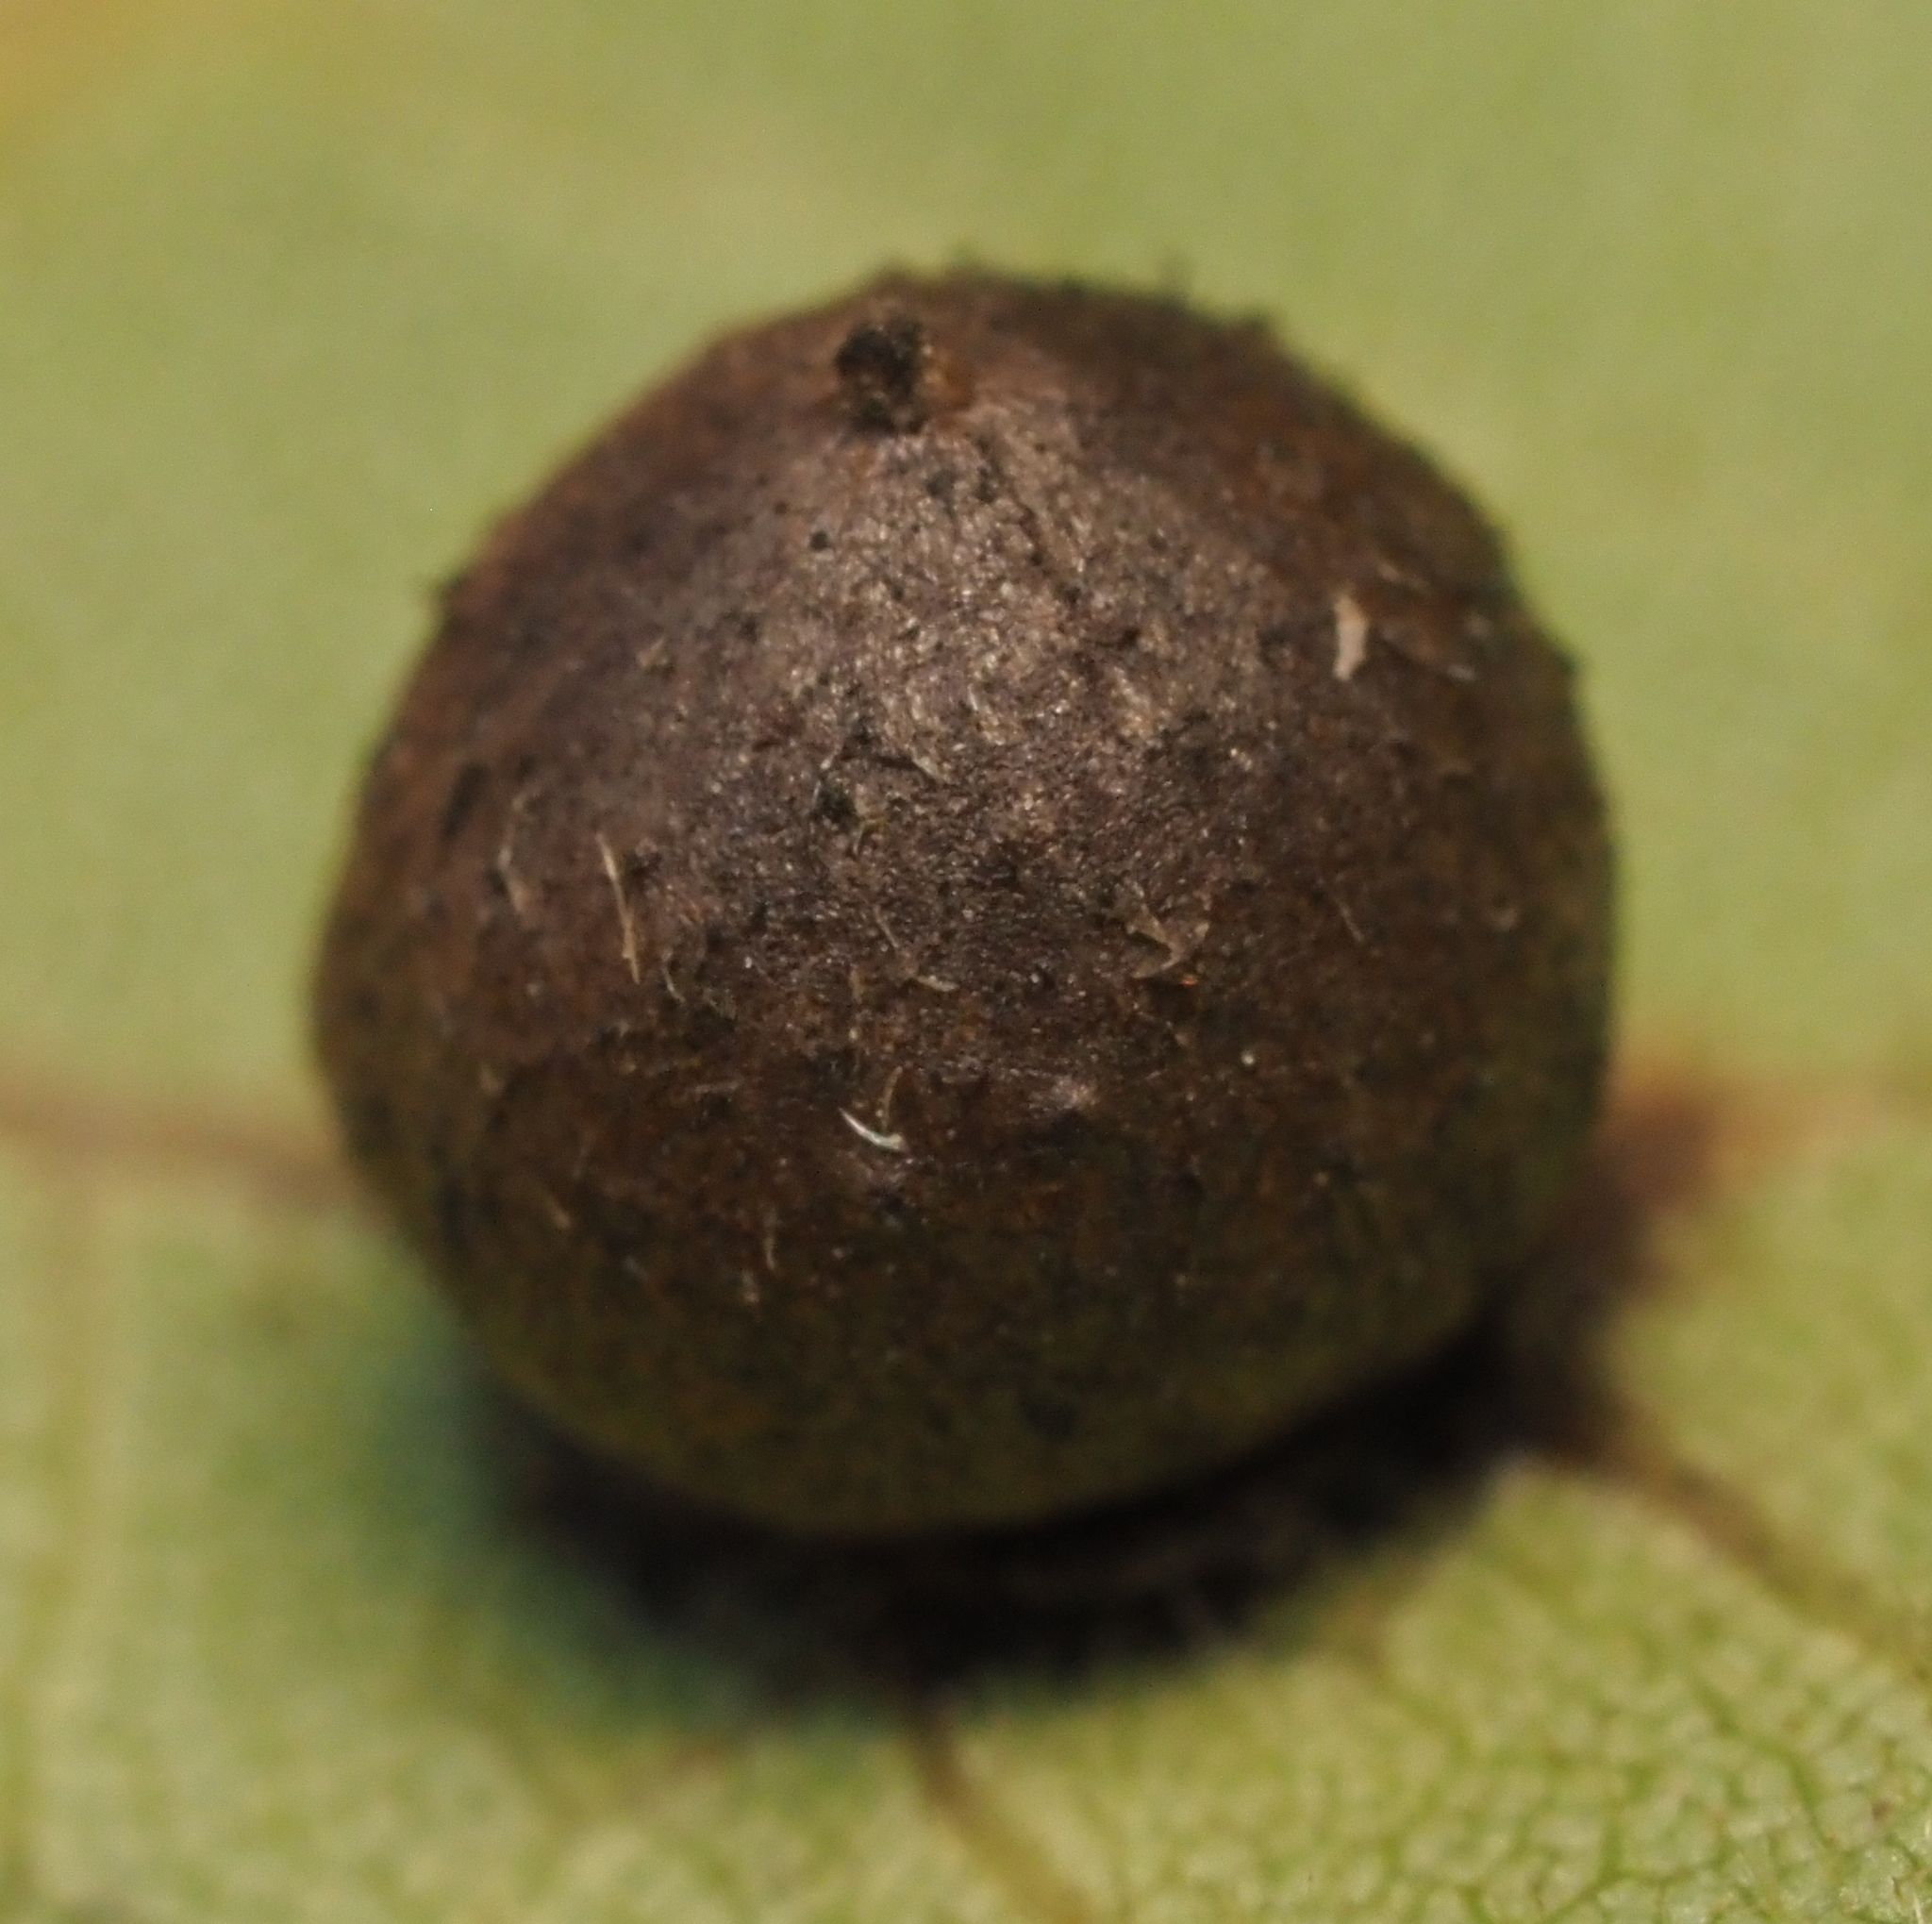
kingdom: Animalia
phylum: Arthropoda
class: Insecta
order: Diptera
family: Cecidomyiidae
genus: Caryomyia
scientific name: Caryomyia deflexipili
